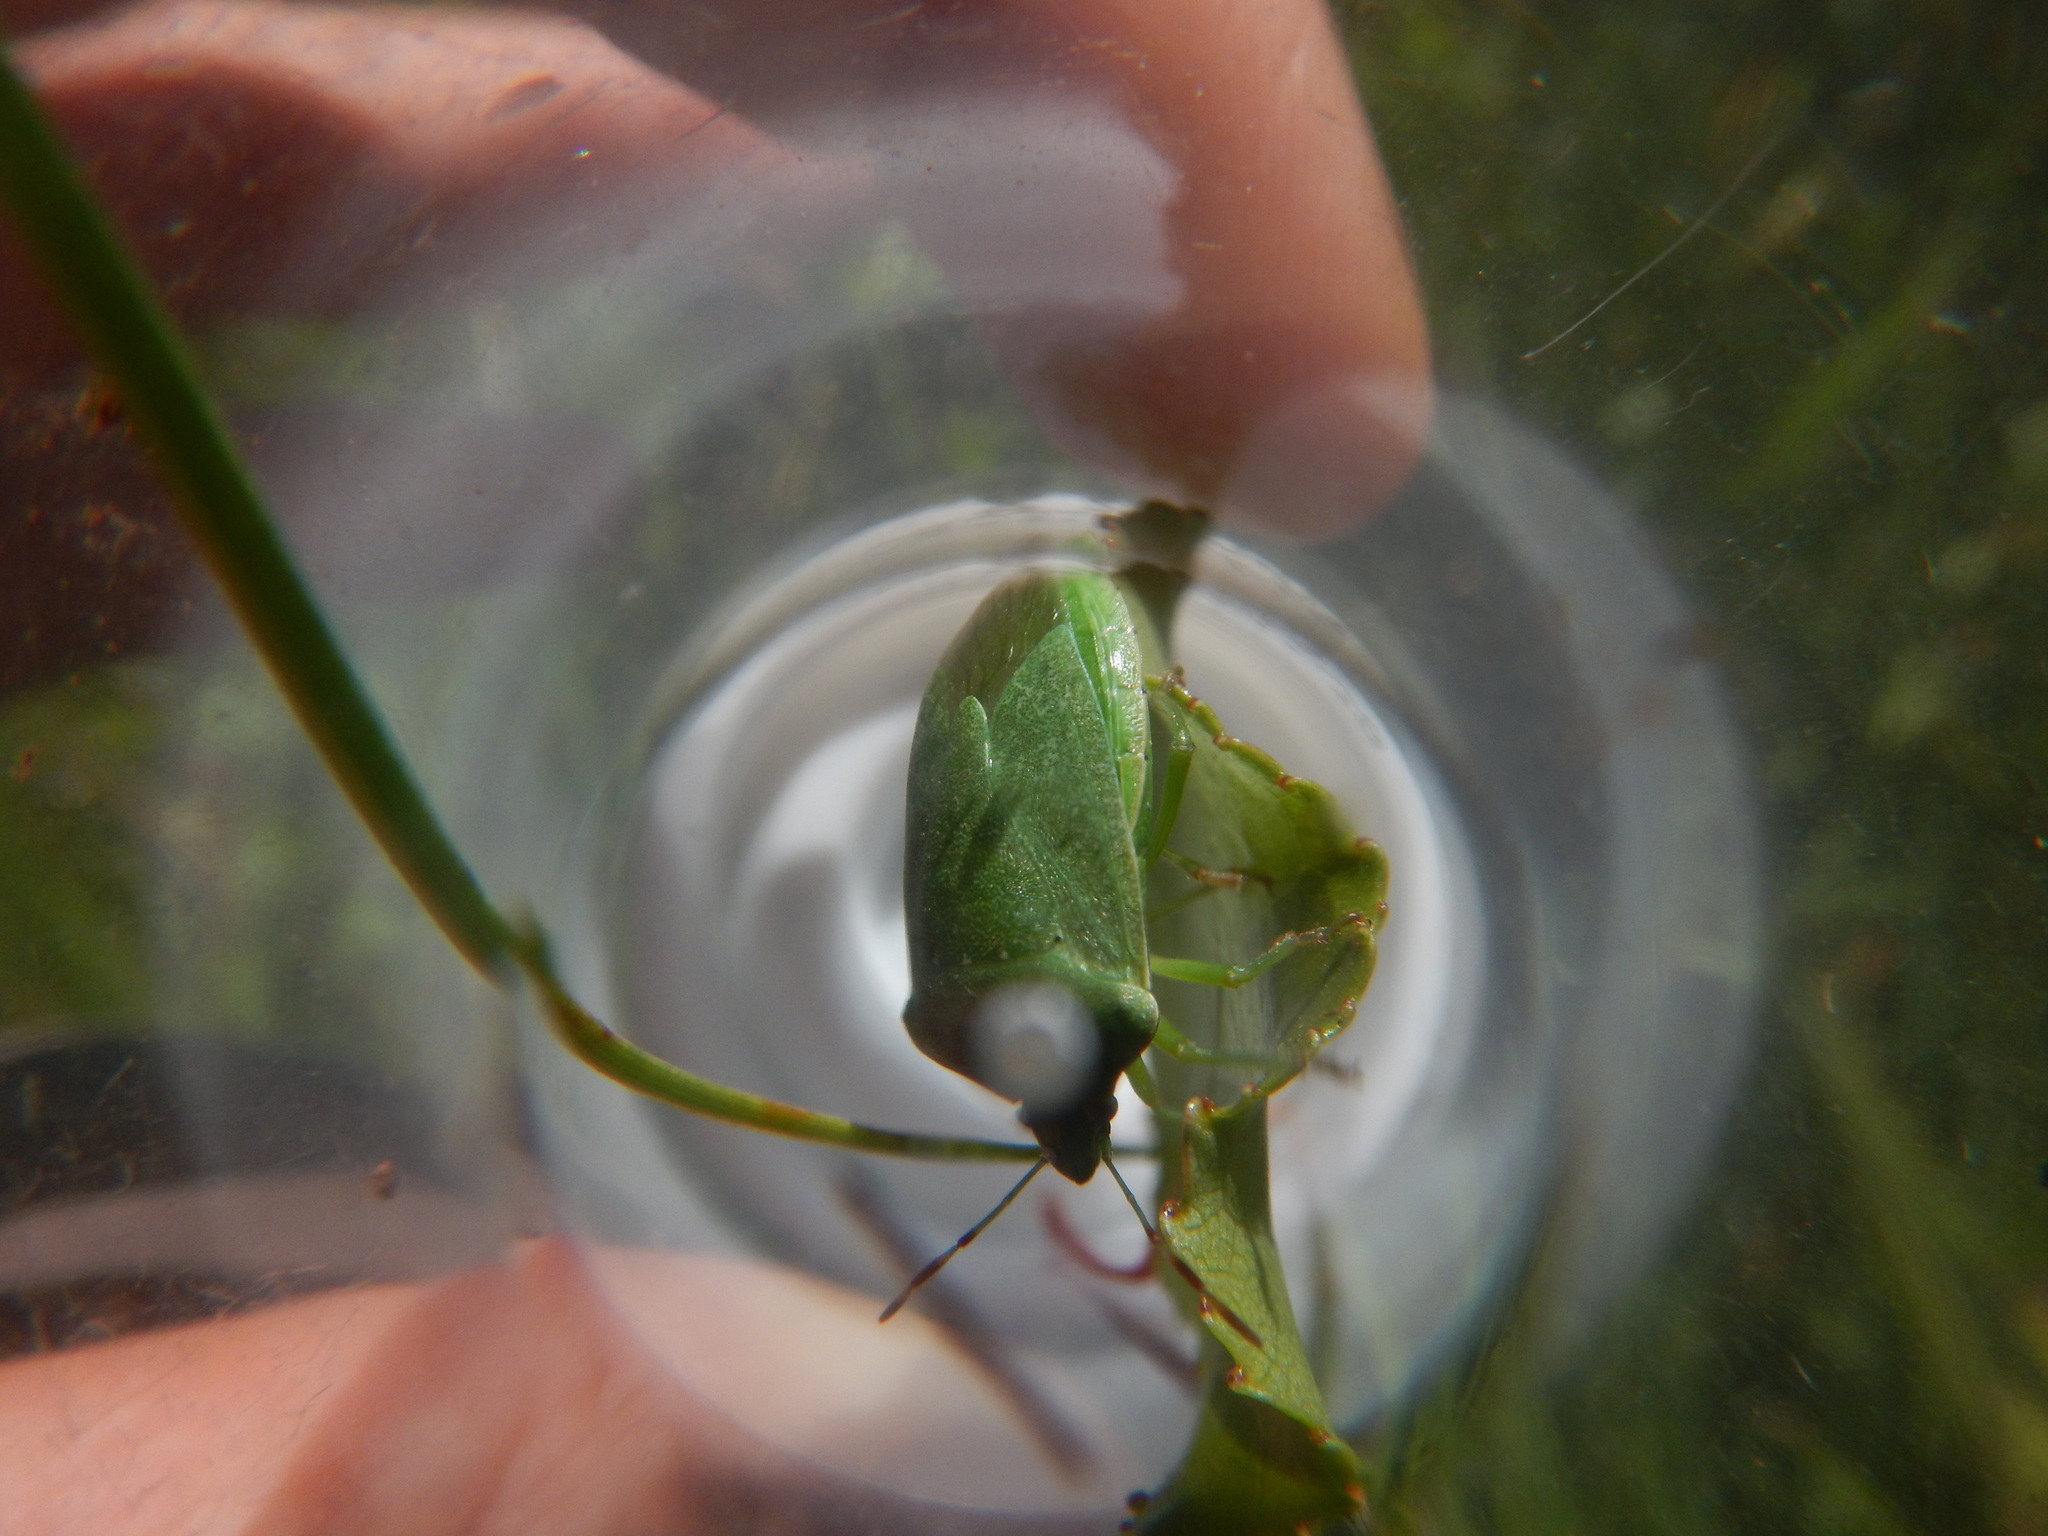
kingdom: Animalia
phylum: Arthropoda
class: Insecta
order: Hemiptera
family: Pentatomidae
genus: Nezara
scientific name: Nezara viridula
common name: Southern green stink bug
